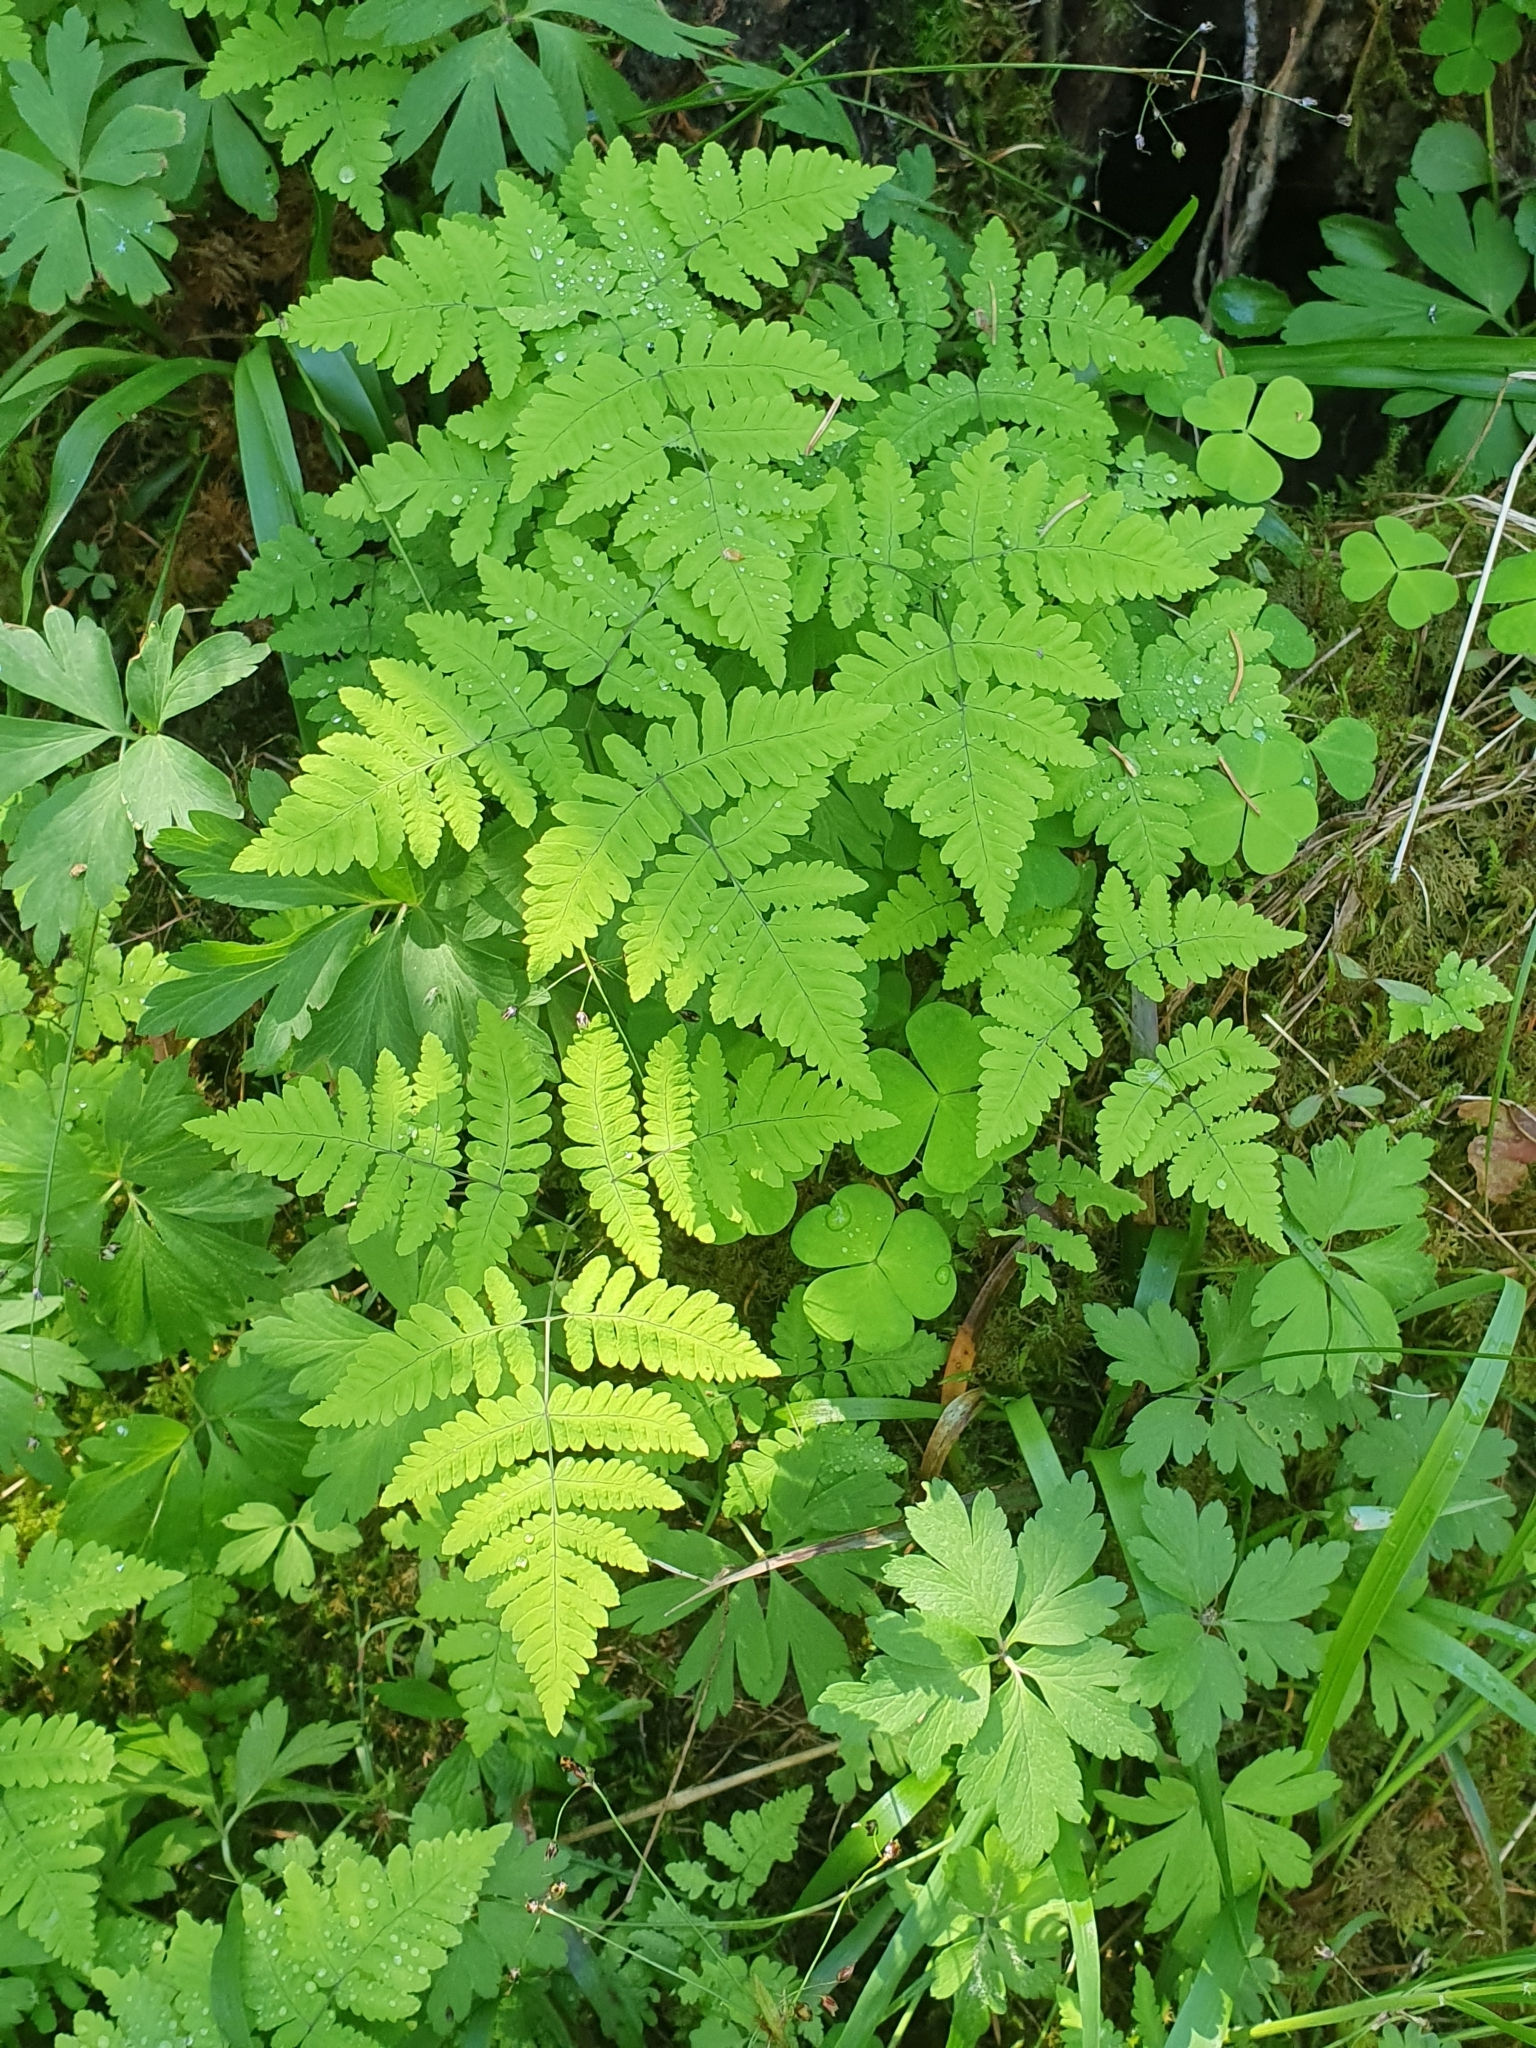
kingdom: Plantae
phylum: Tracheophyta
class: Polypodiopsida
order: Polypodiales
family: Cystopteridaceae
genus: Gymnocarpium
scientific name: Gymnocarpium dryopteris
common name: Oak fern
